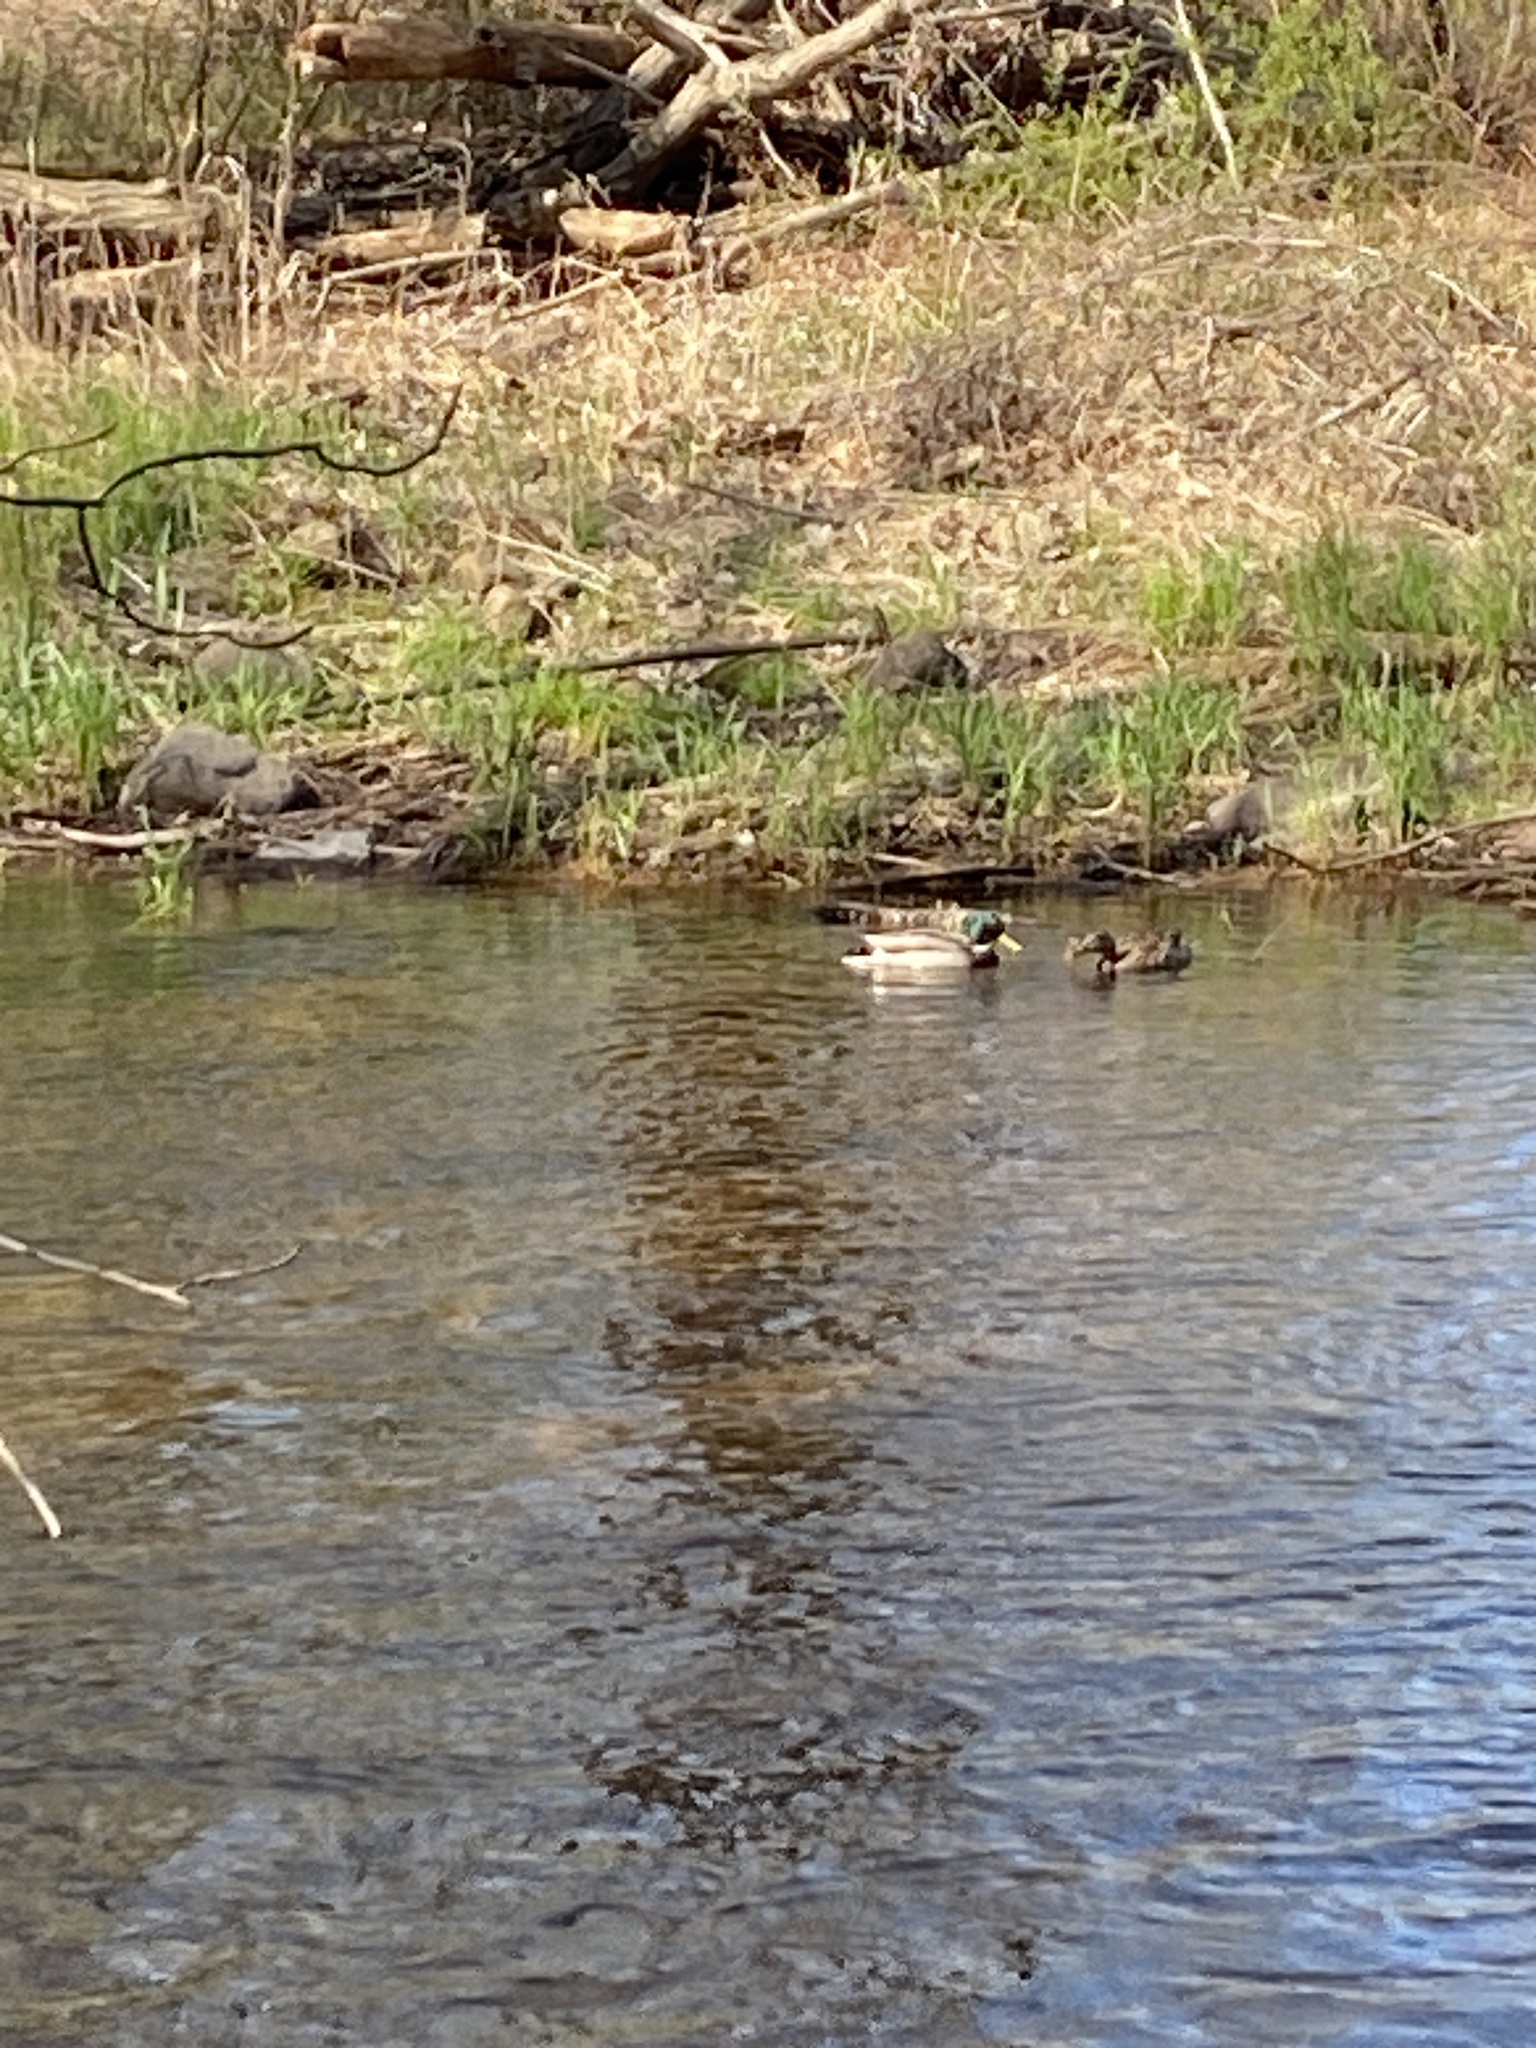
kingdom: Animalia
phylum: Chordata
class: Aves
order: Anseriformes
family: Anatidae
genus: Anas
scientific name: Anas platyrhynchos
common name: Mallard
